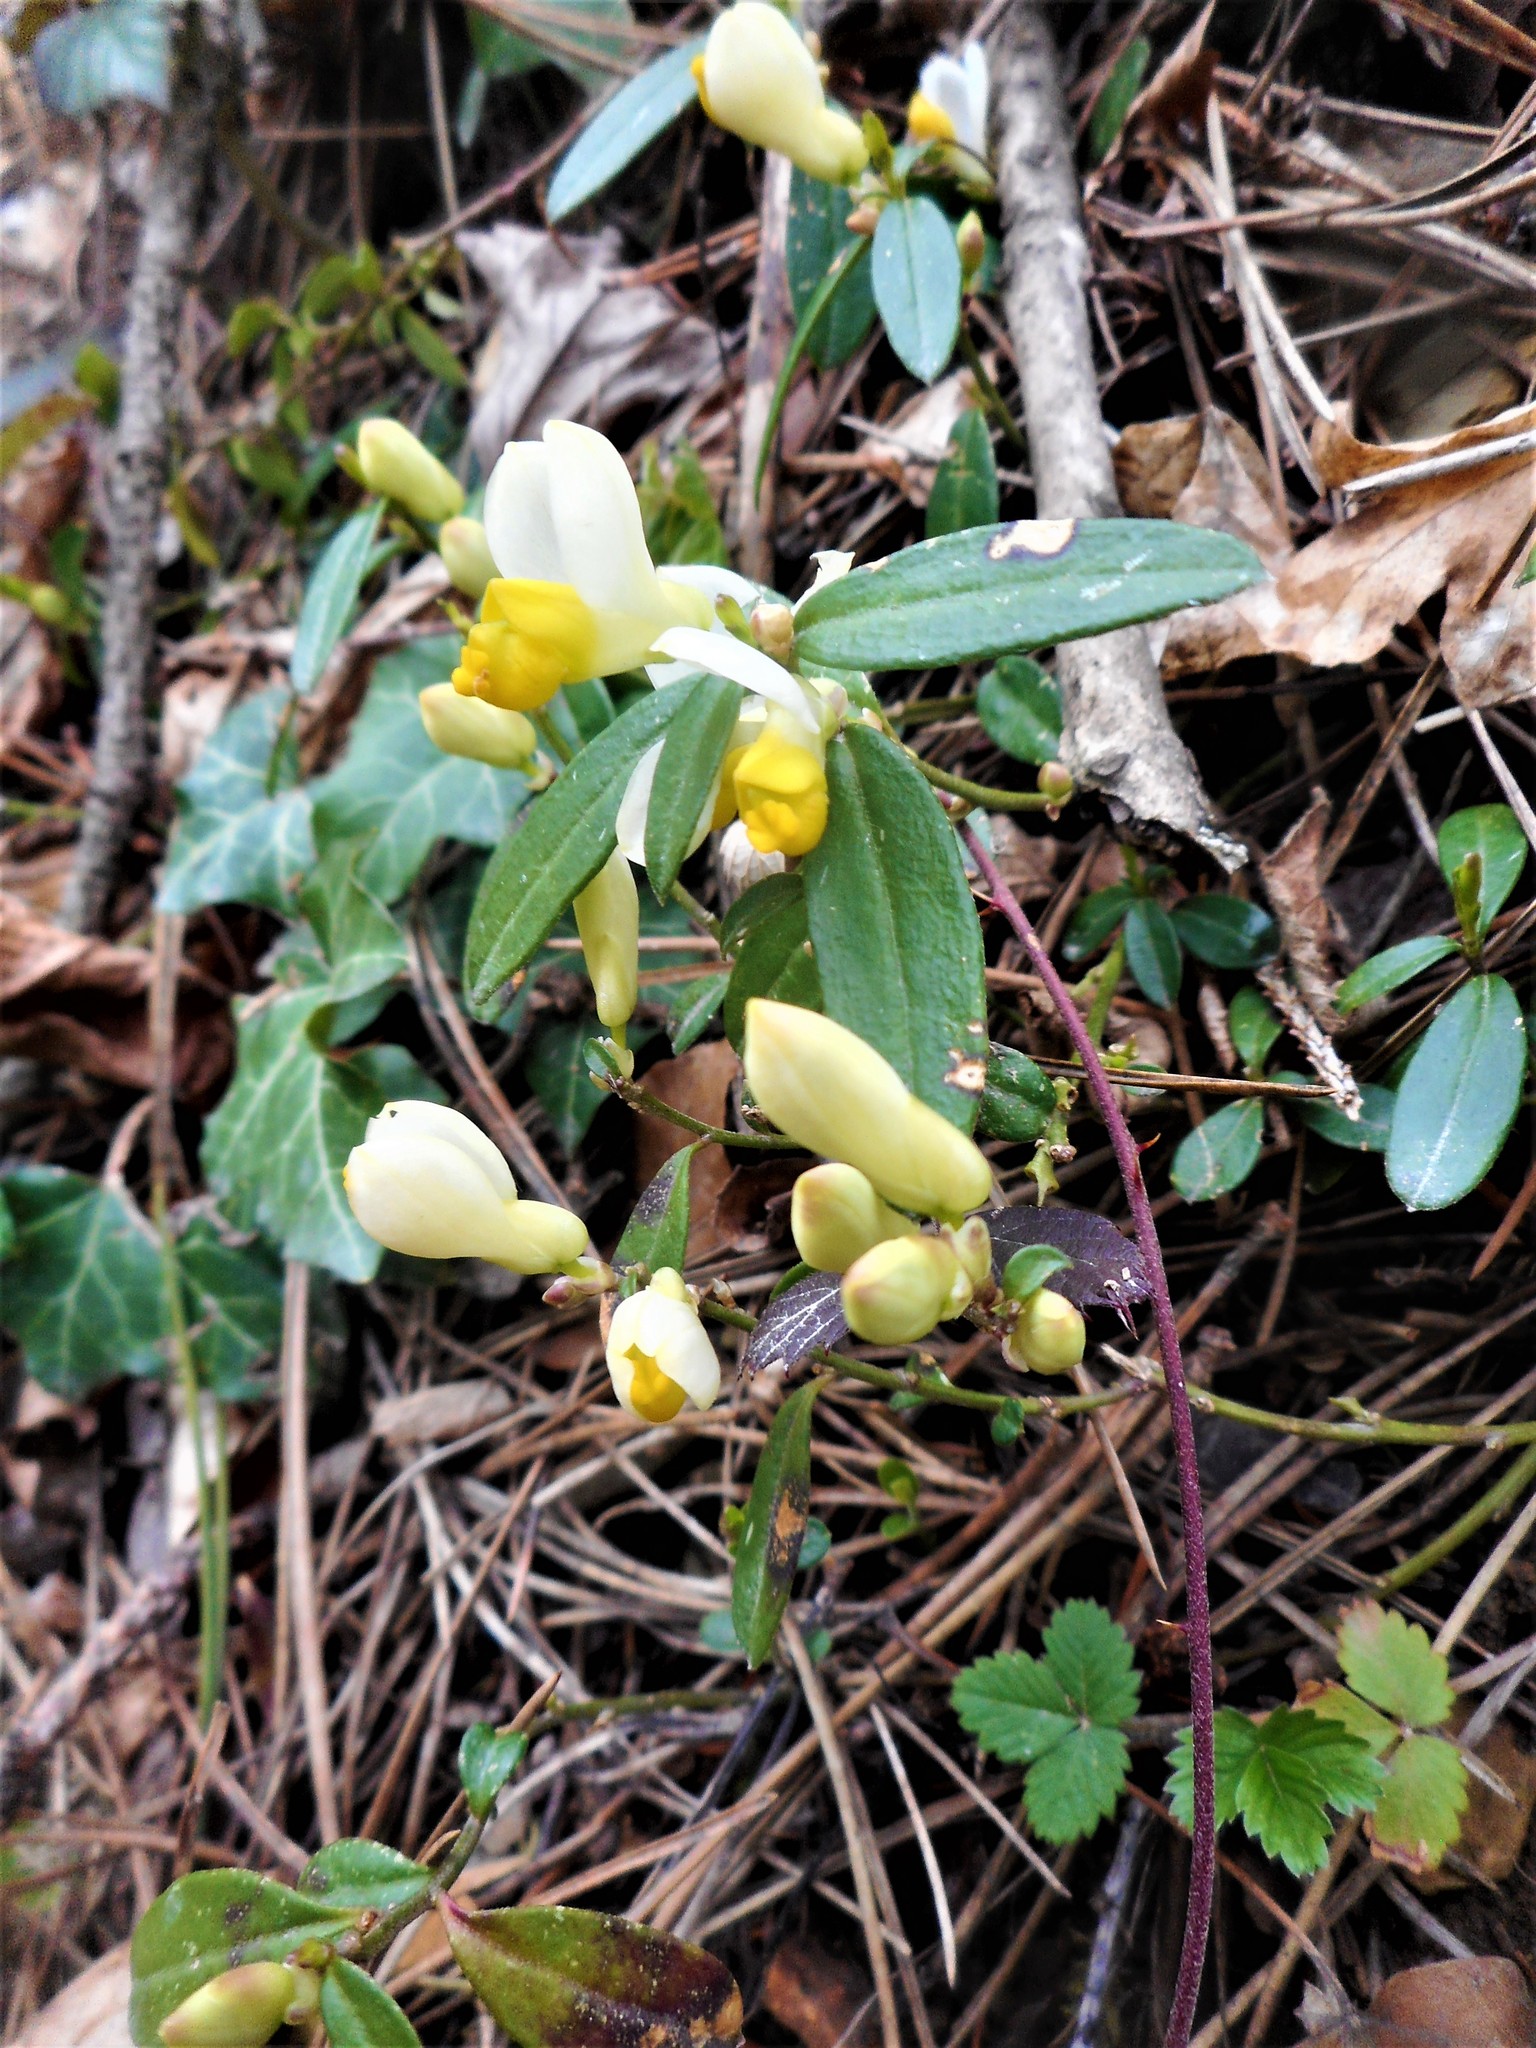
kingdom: Plantae
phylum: Tracheophyta
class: Magnoliopsida
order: Fabales
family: Polygalaceae
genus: Polygaloides
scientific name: Polygaloides chamaebuxus
